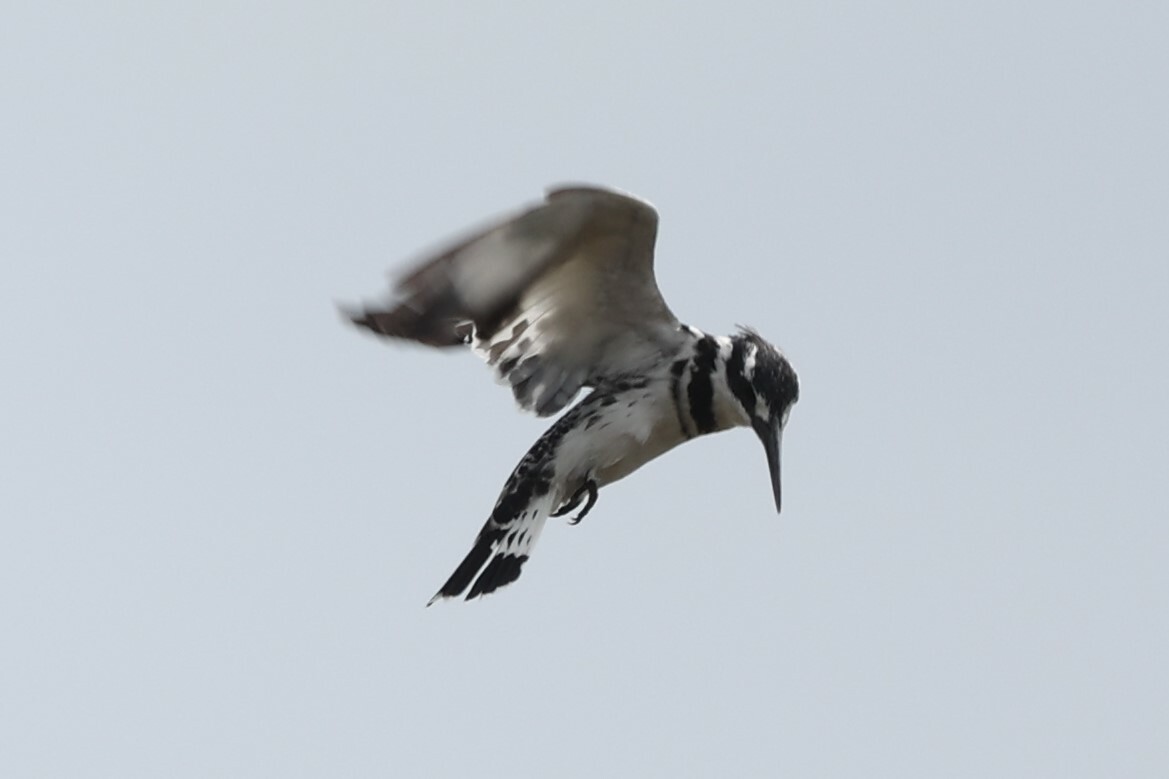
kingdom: Animalia
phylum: Chordata
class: Aves
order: Coraciiformes
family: Alcedinidae
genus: Ceryle
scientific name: Ceryle rudis
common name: Pied kingfisher
